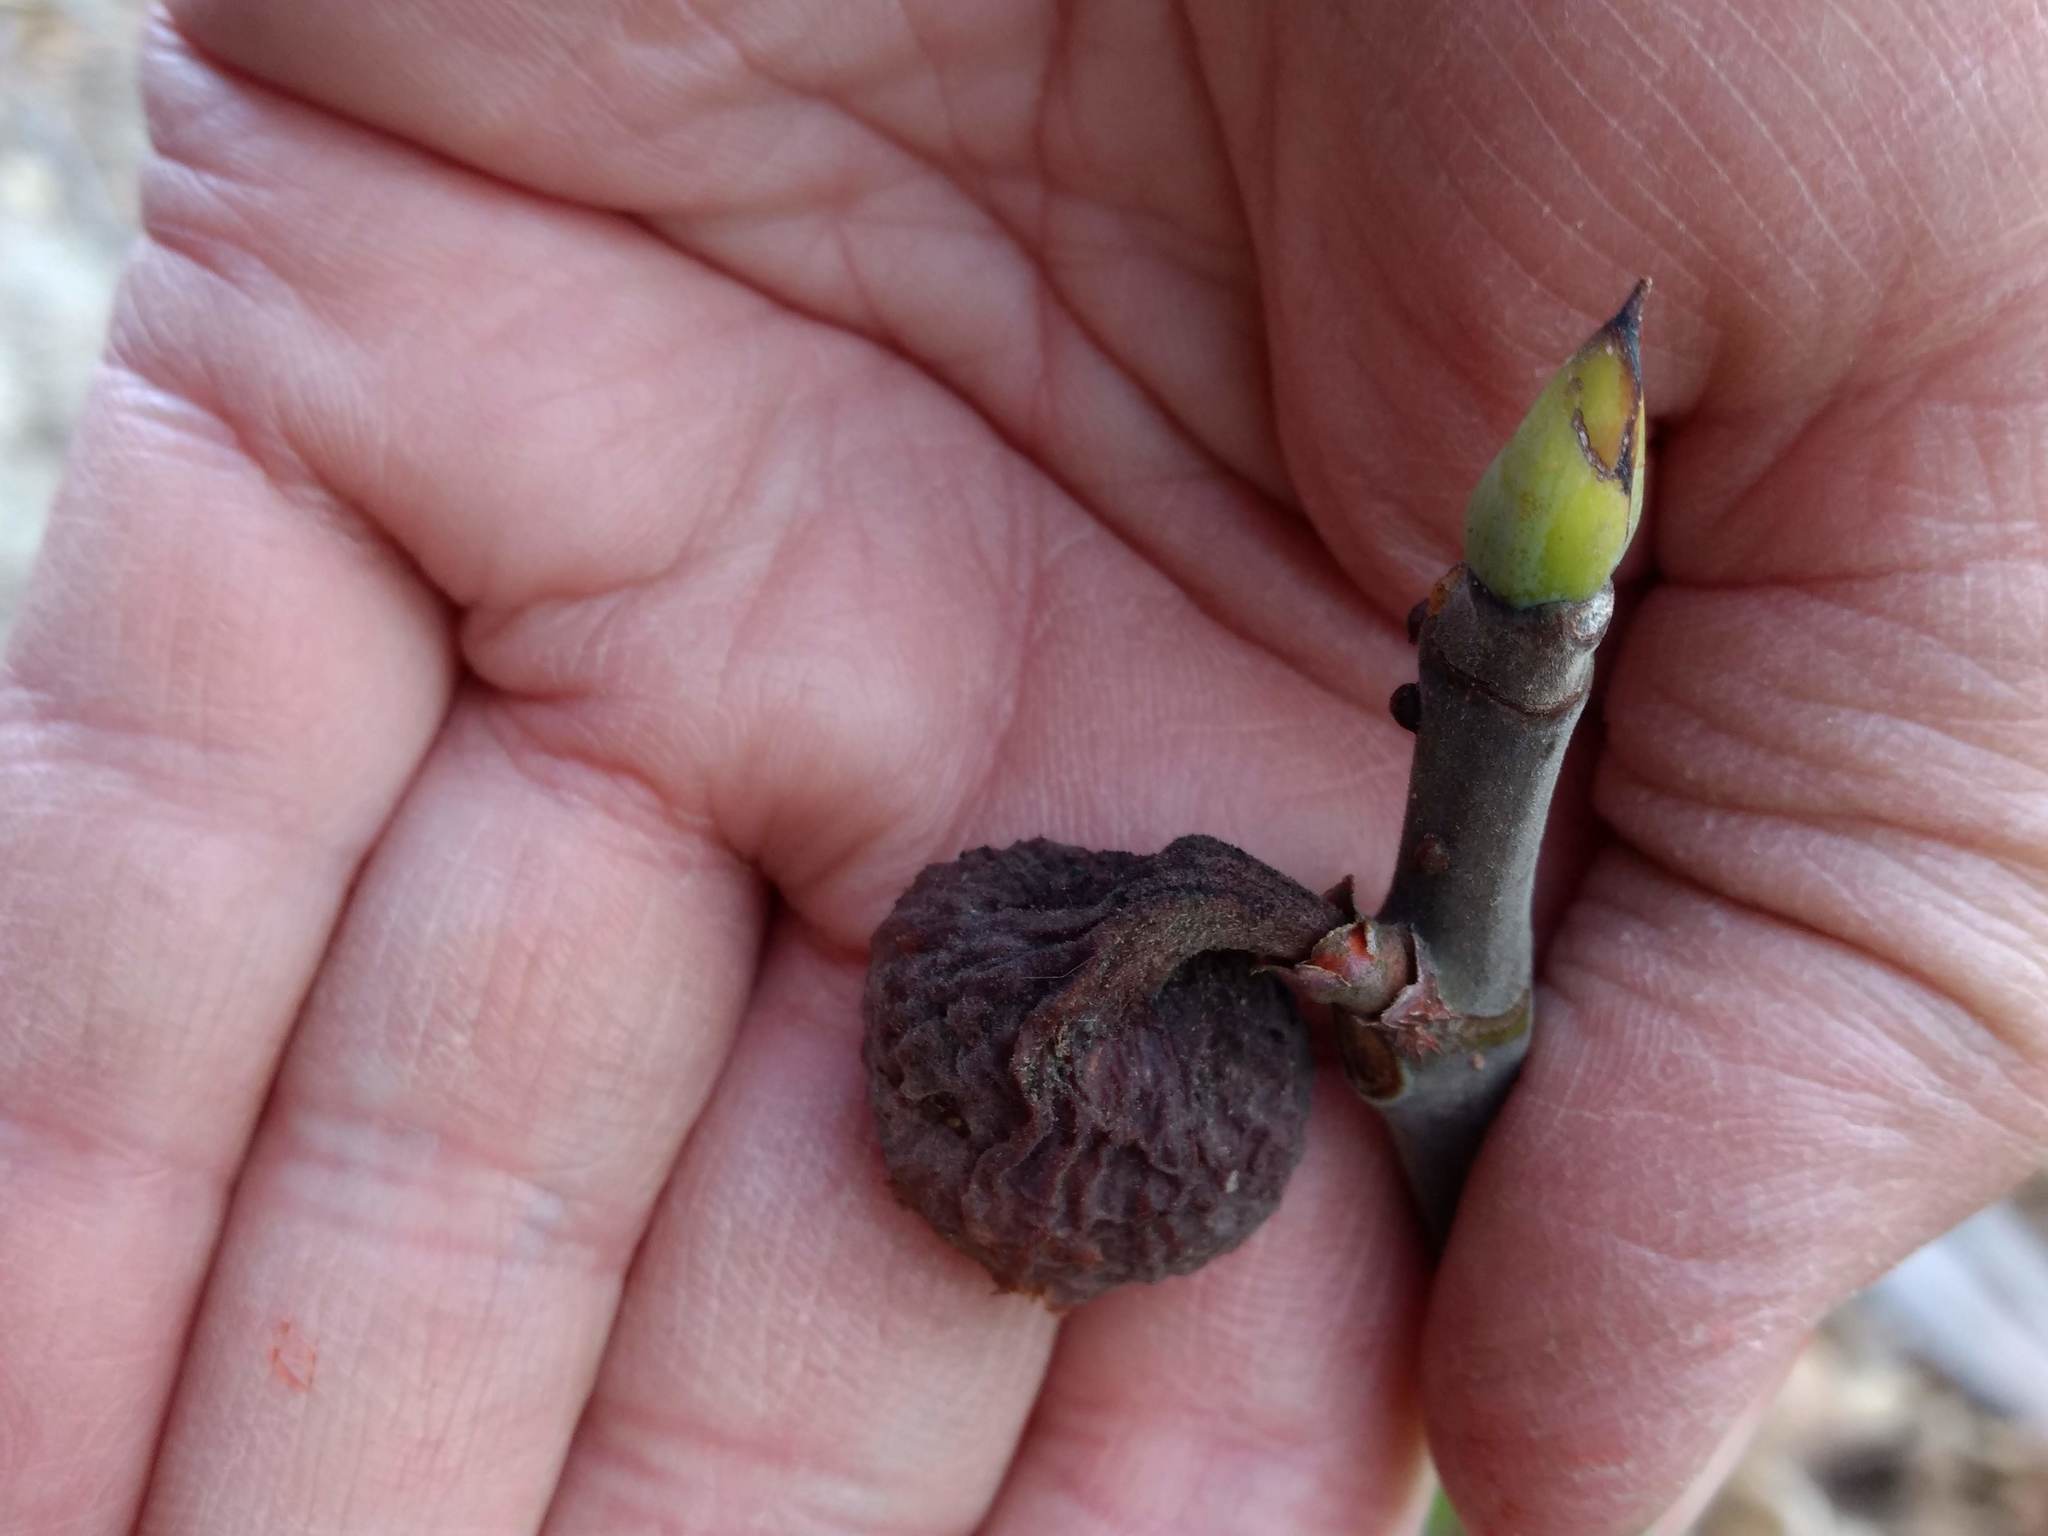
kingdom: Plantae
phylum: Tracheophyta
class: Magnoliopsida
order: Rosales
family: Moraceae
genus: Ficus
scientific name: Ficus carica
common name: Fig
